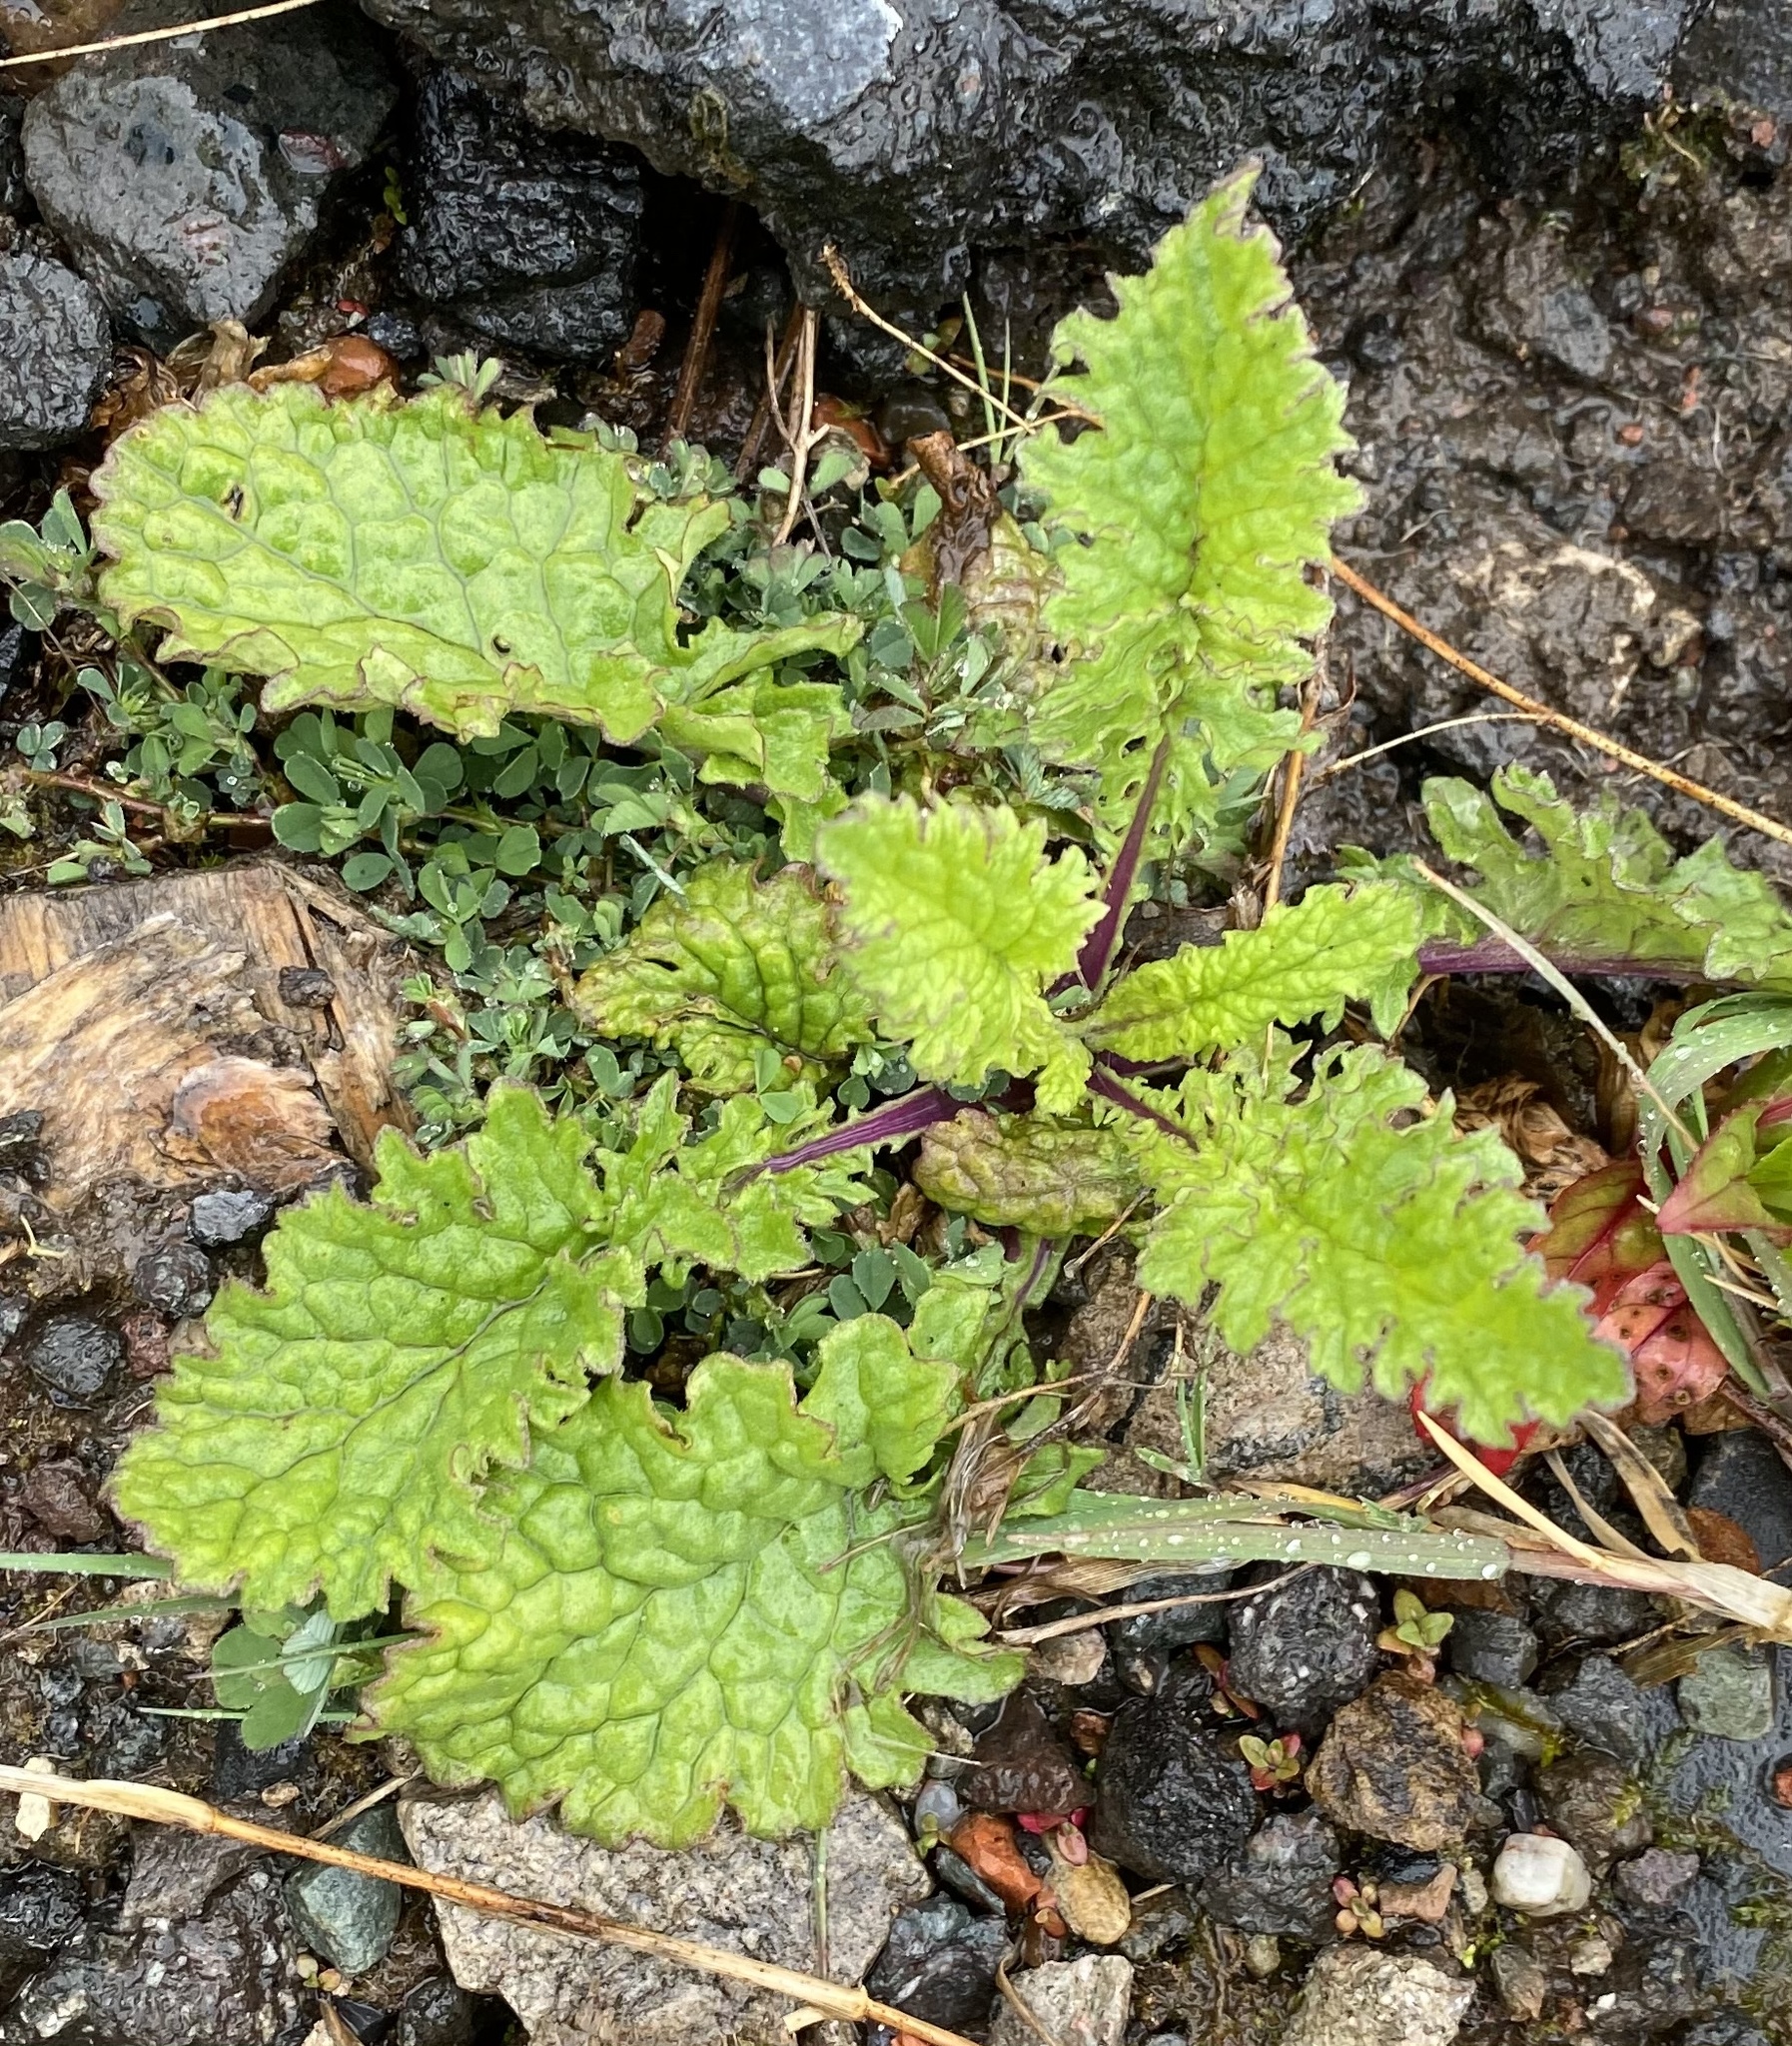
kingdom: Plantae
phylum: Tracheophyta
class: Magnoliopsida
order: Asterales
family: Asteraceae
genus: Jacobaea
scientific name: Jacobaea vulgaris
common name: Stinking willie
